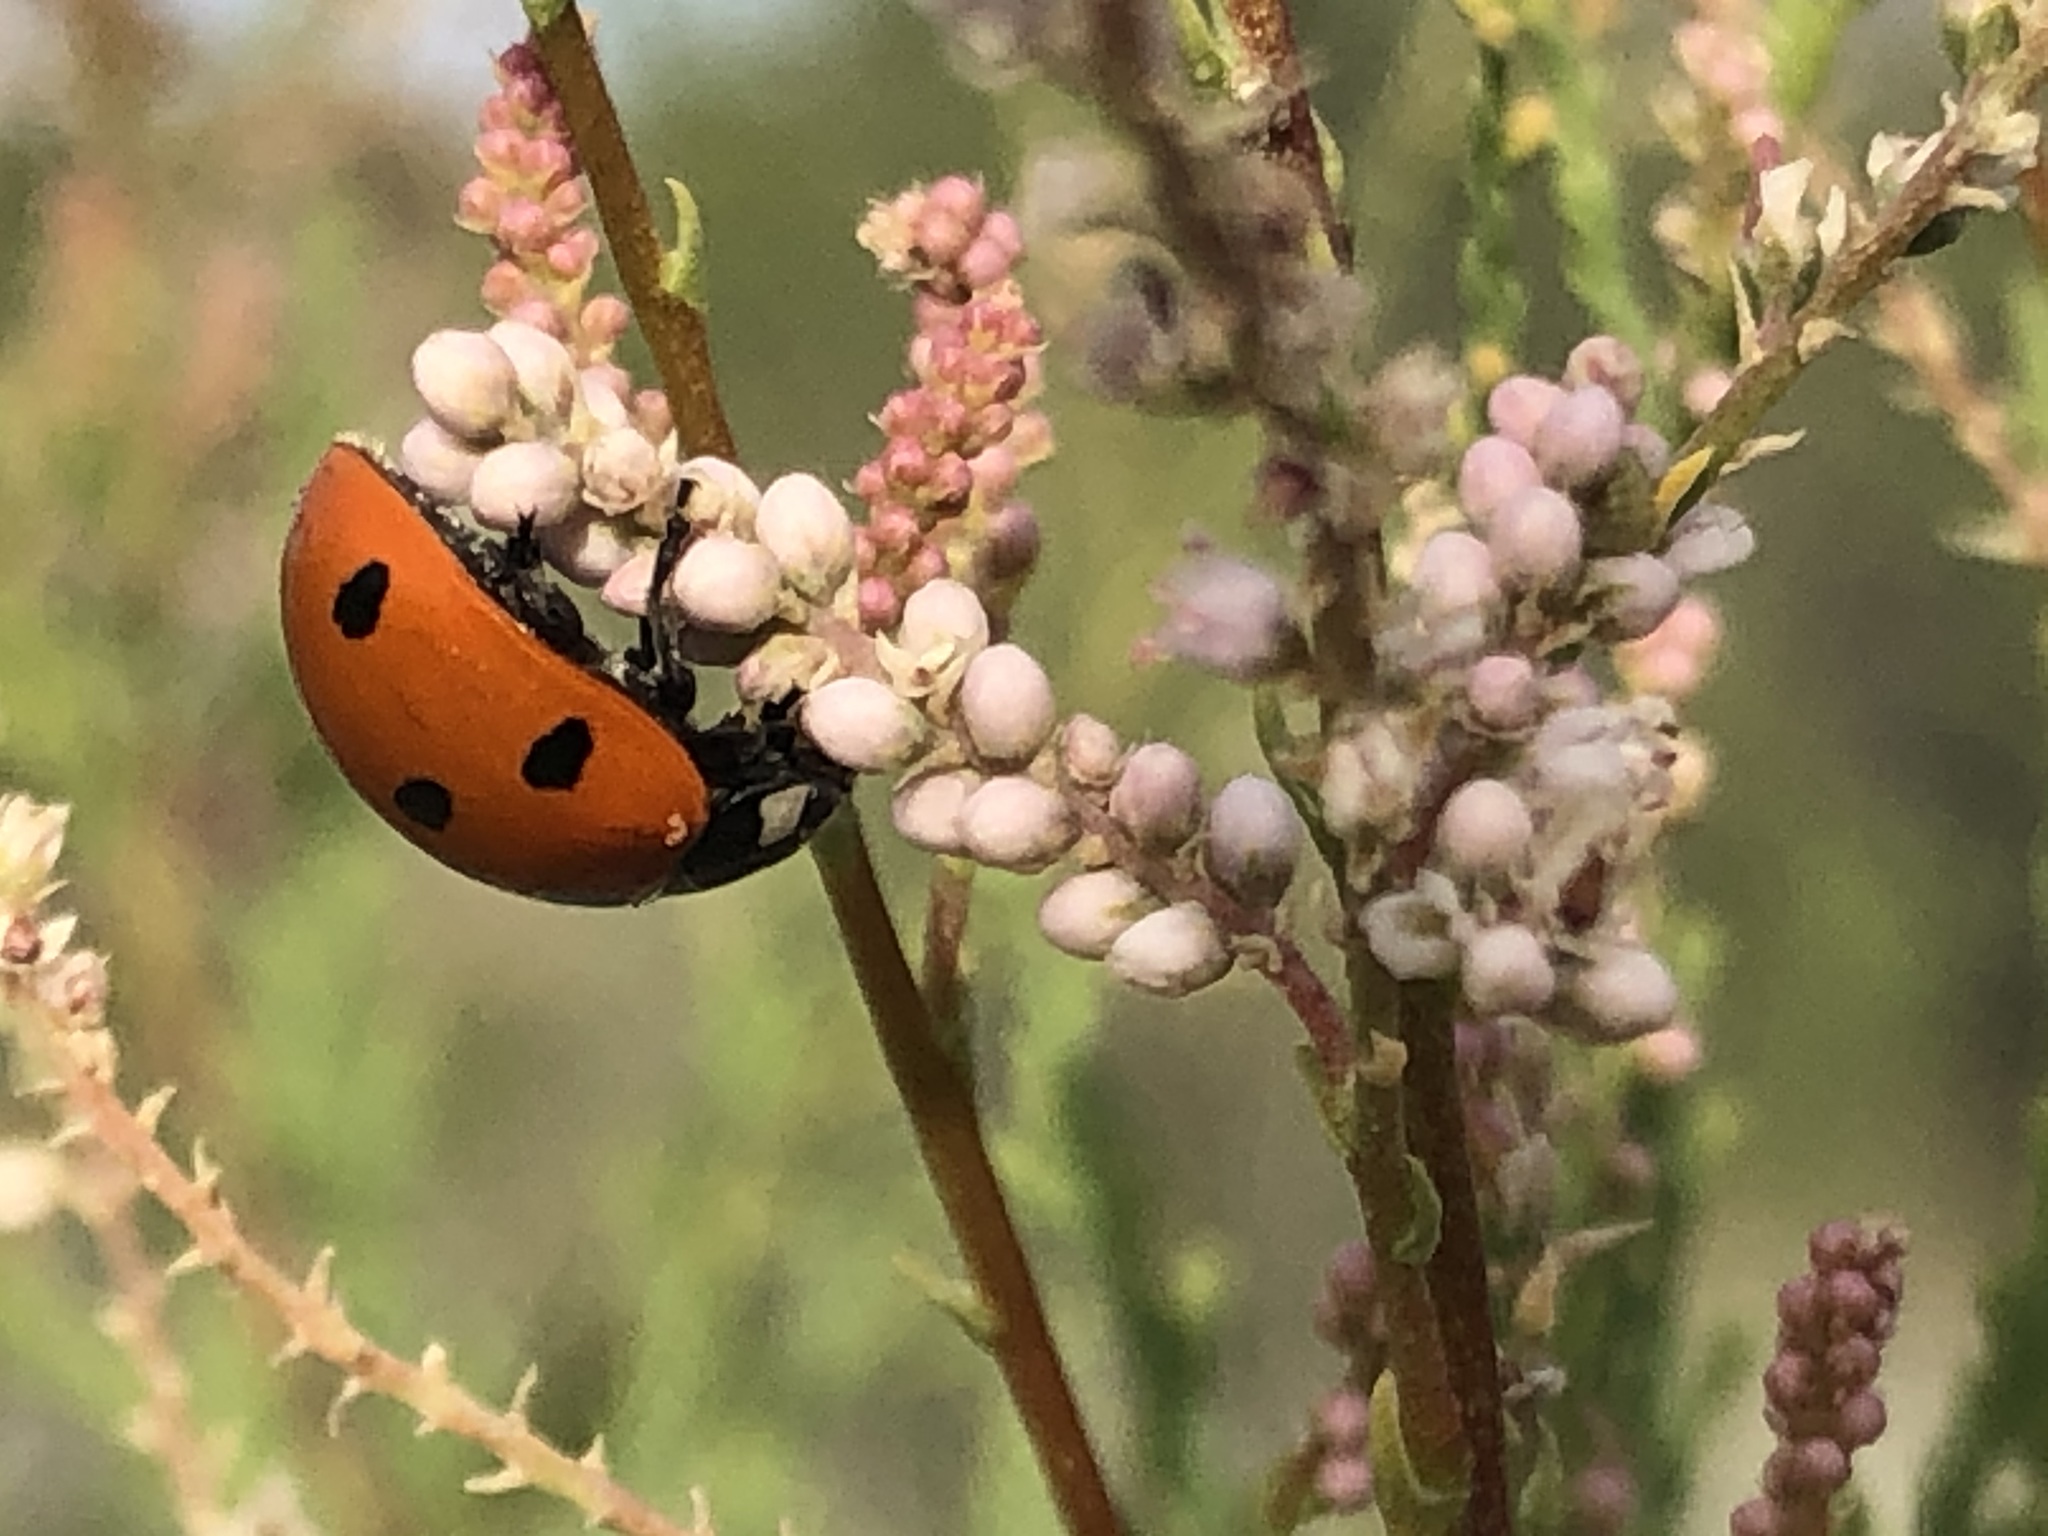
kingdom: Animalia
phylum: Arthropoda
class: Insecta
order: Coleoptera
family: Coccinellidae
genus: Coccinella
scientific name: Coccinella septempunctata
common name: Sevenspotted lady beetle
